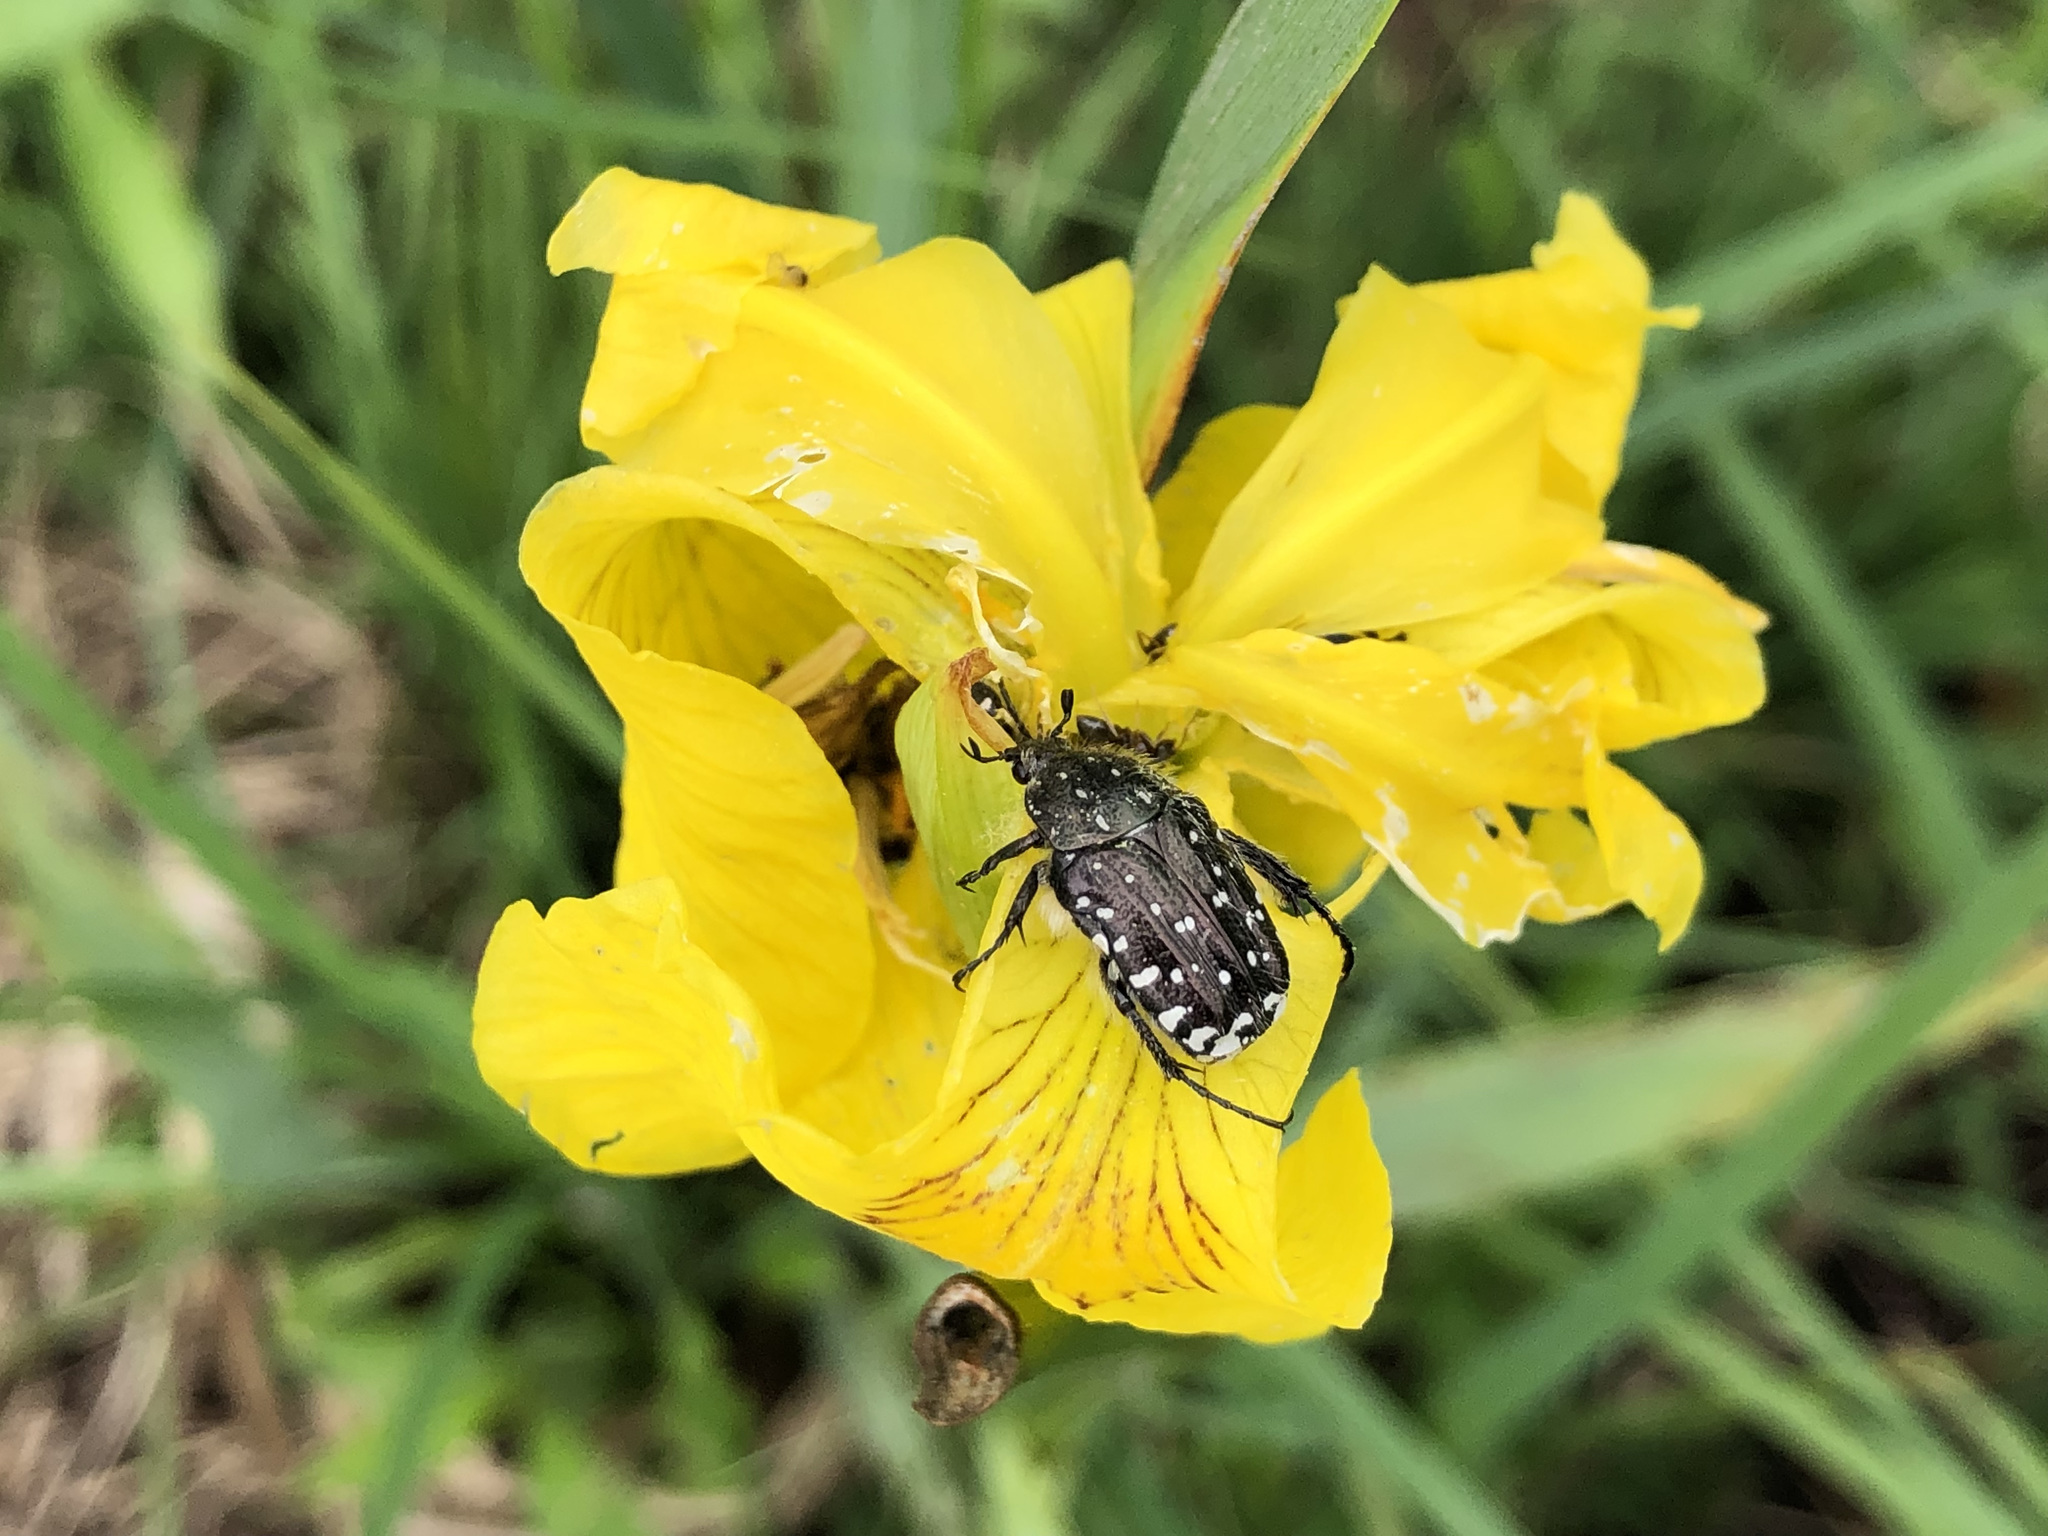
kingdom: Animalia
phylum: Arthropoda
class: Insecta
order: Coleoptera
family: Scarabaeidae
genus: Oxythyrea
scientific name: Oxythyrea funesta
